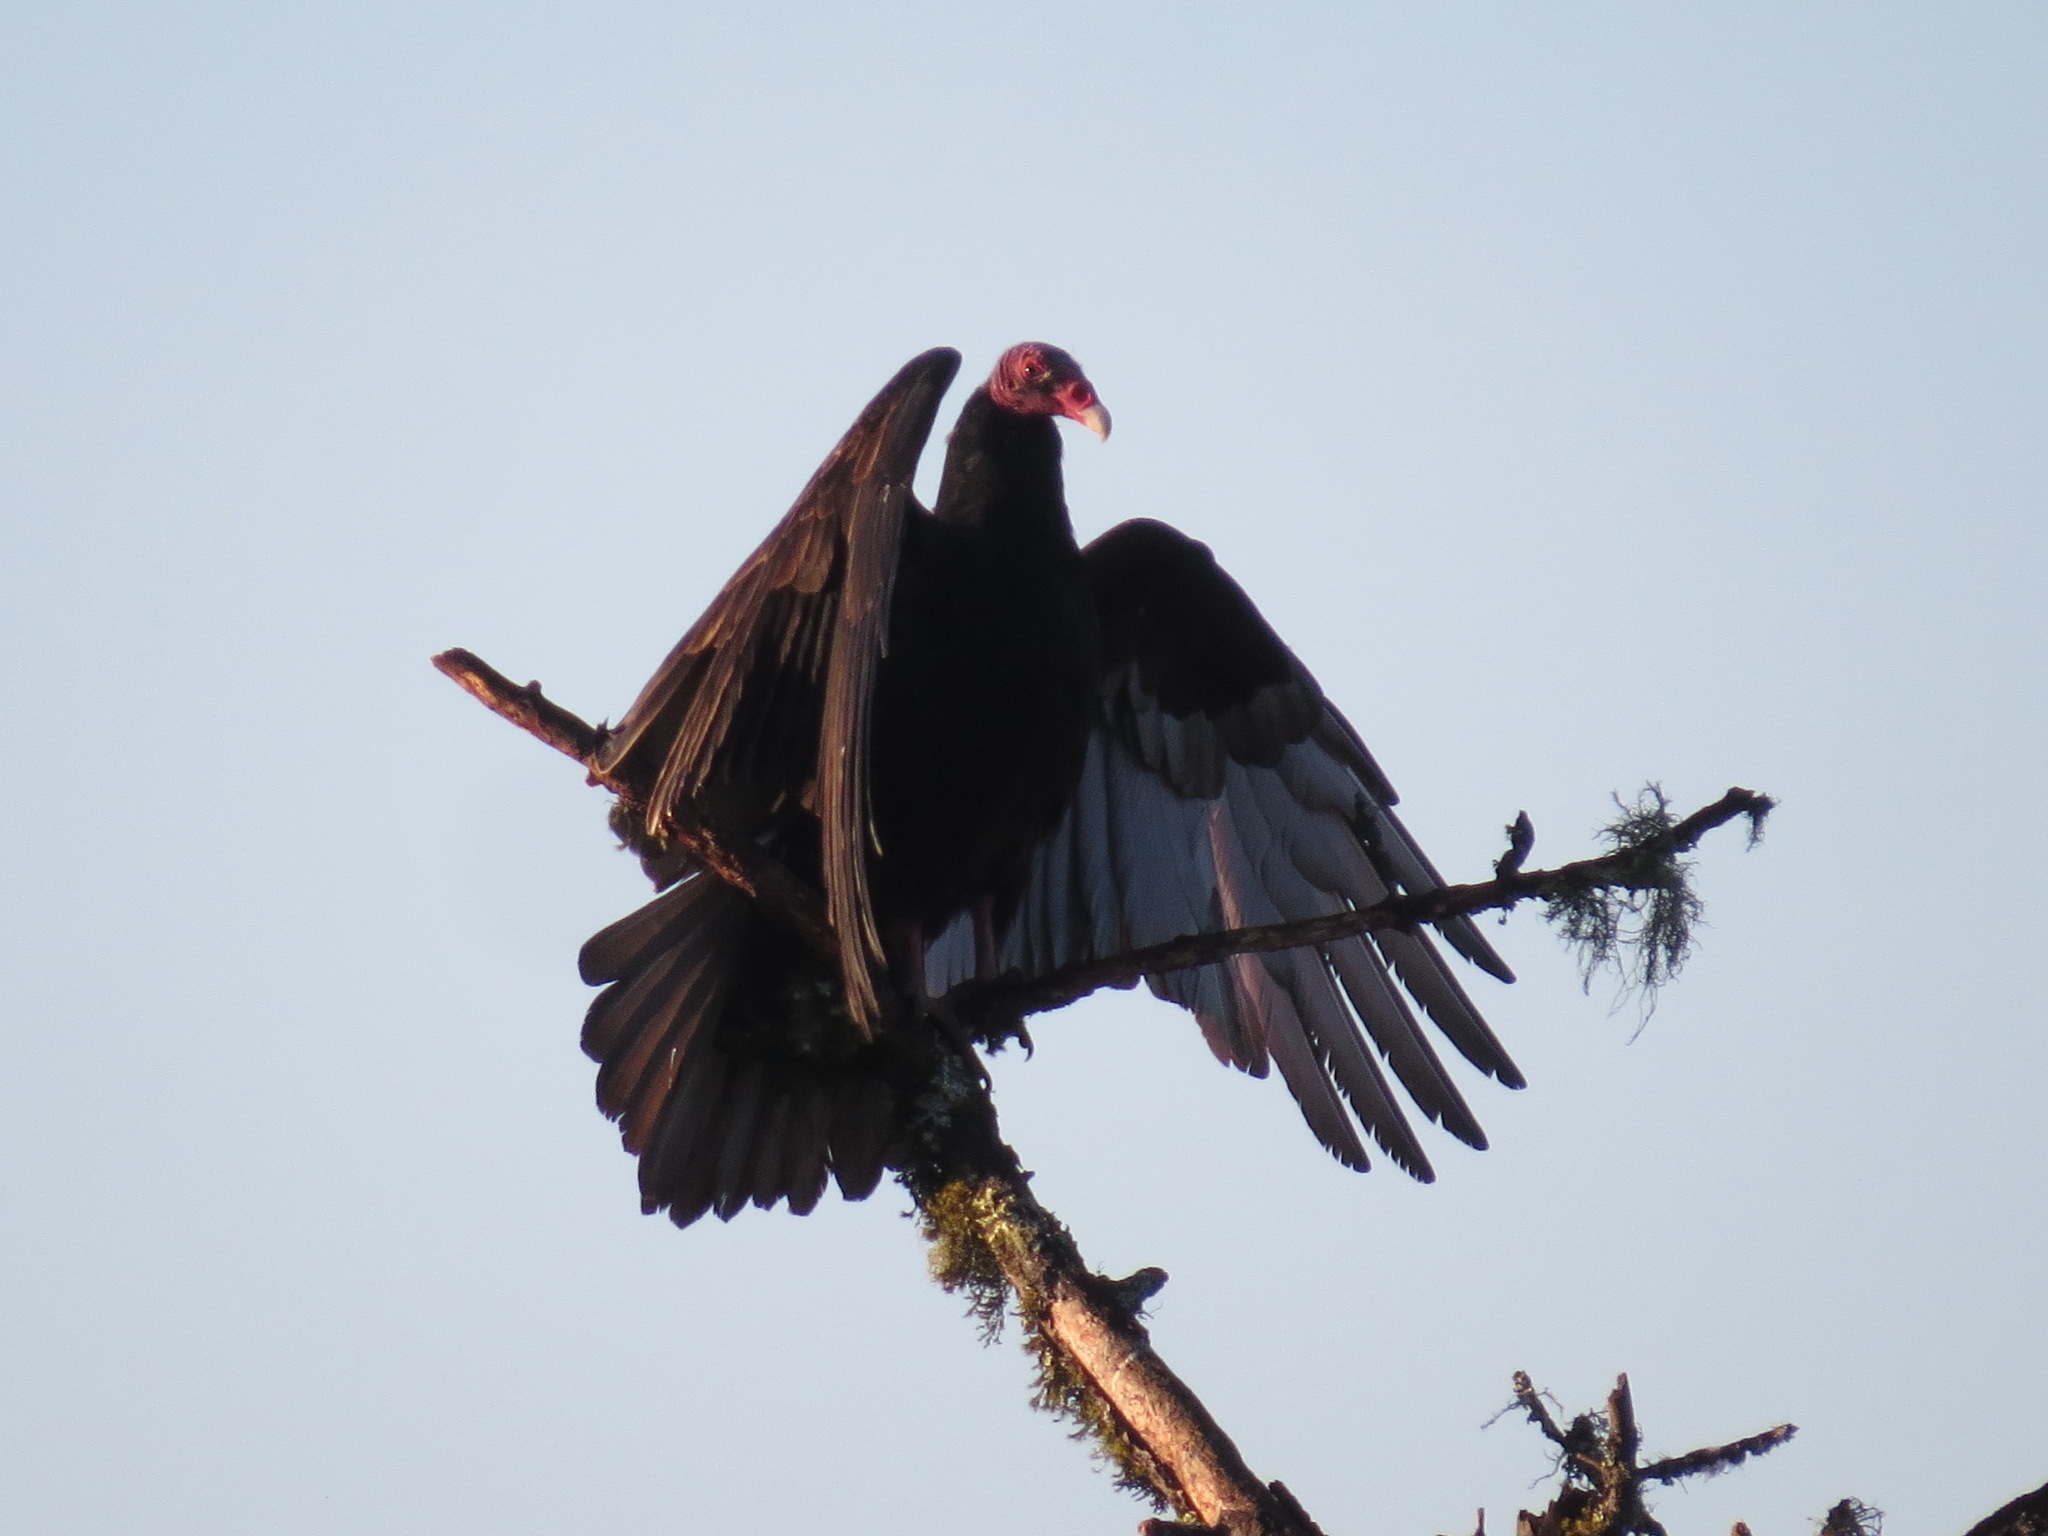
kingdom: Animalia
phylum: Chordata
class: Aves
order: Accipitriformes
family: Cathartidae
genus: Cathartes
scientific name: Cathartes aura
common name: Turkey vulture
